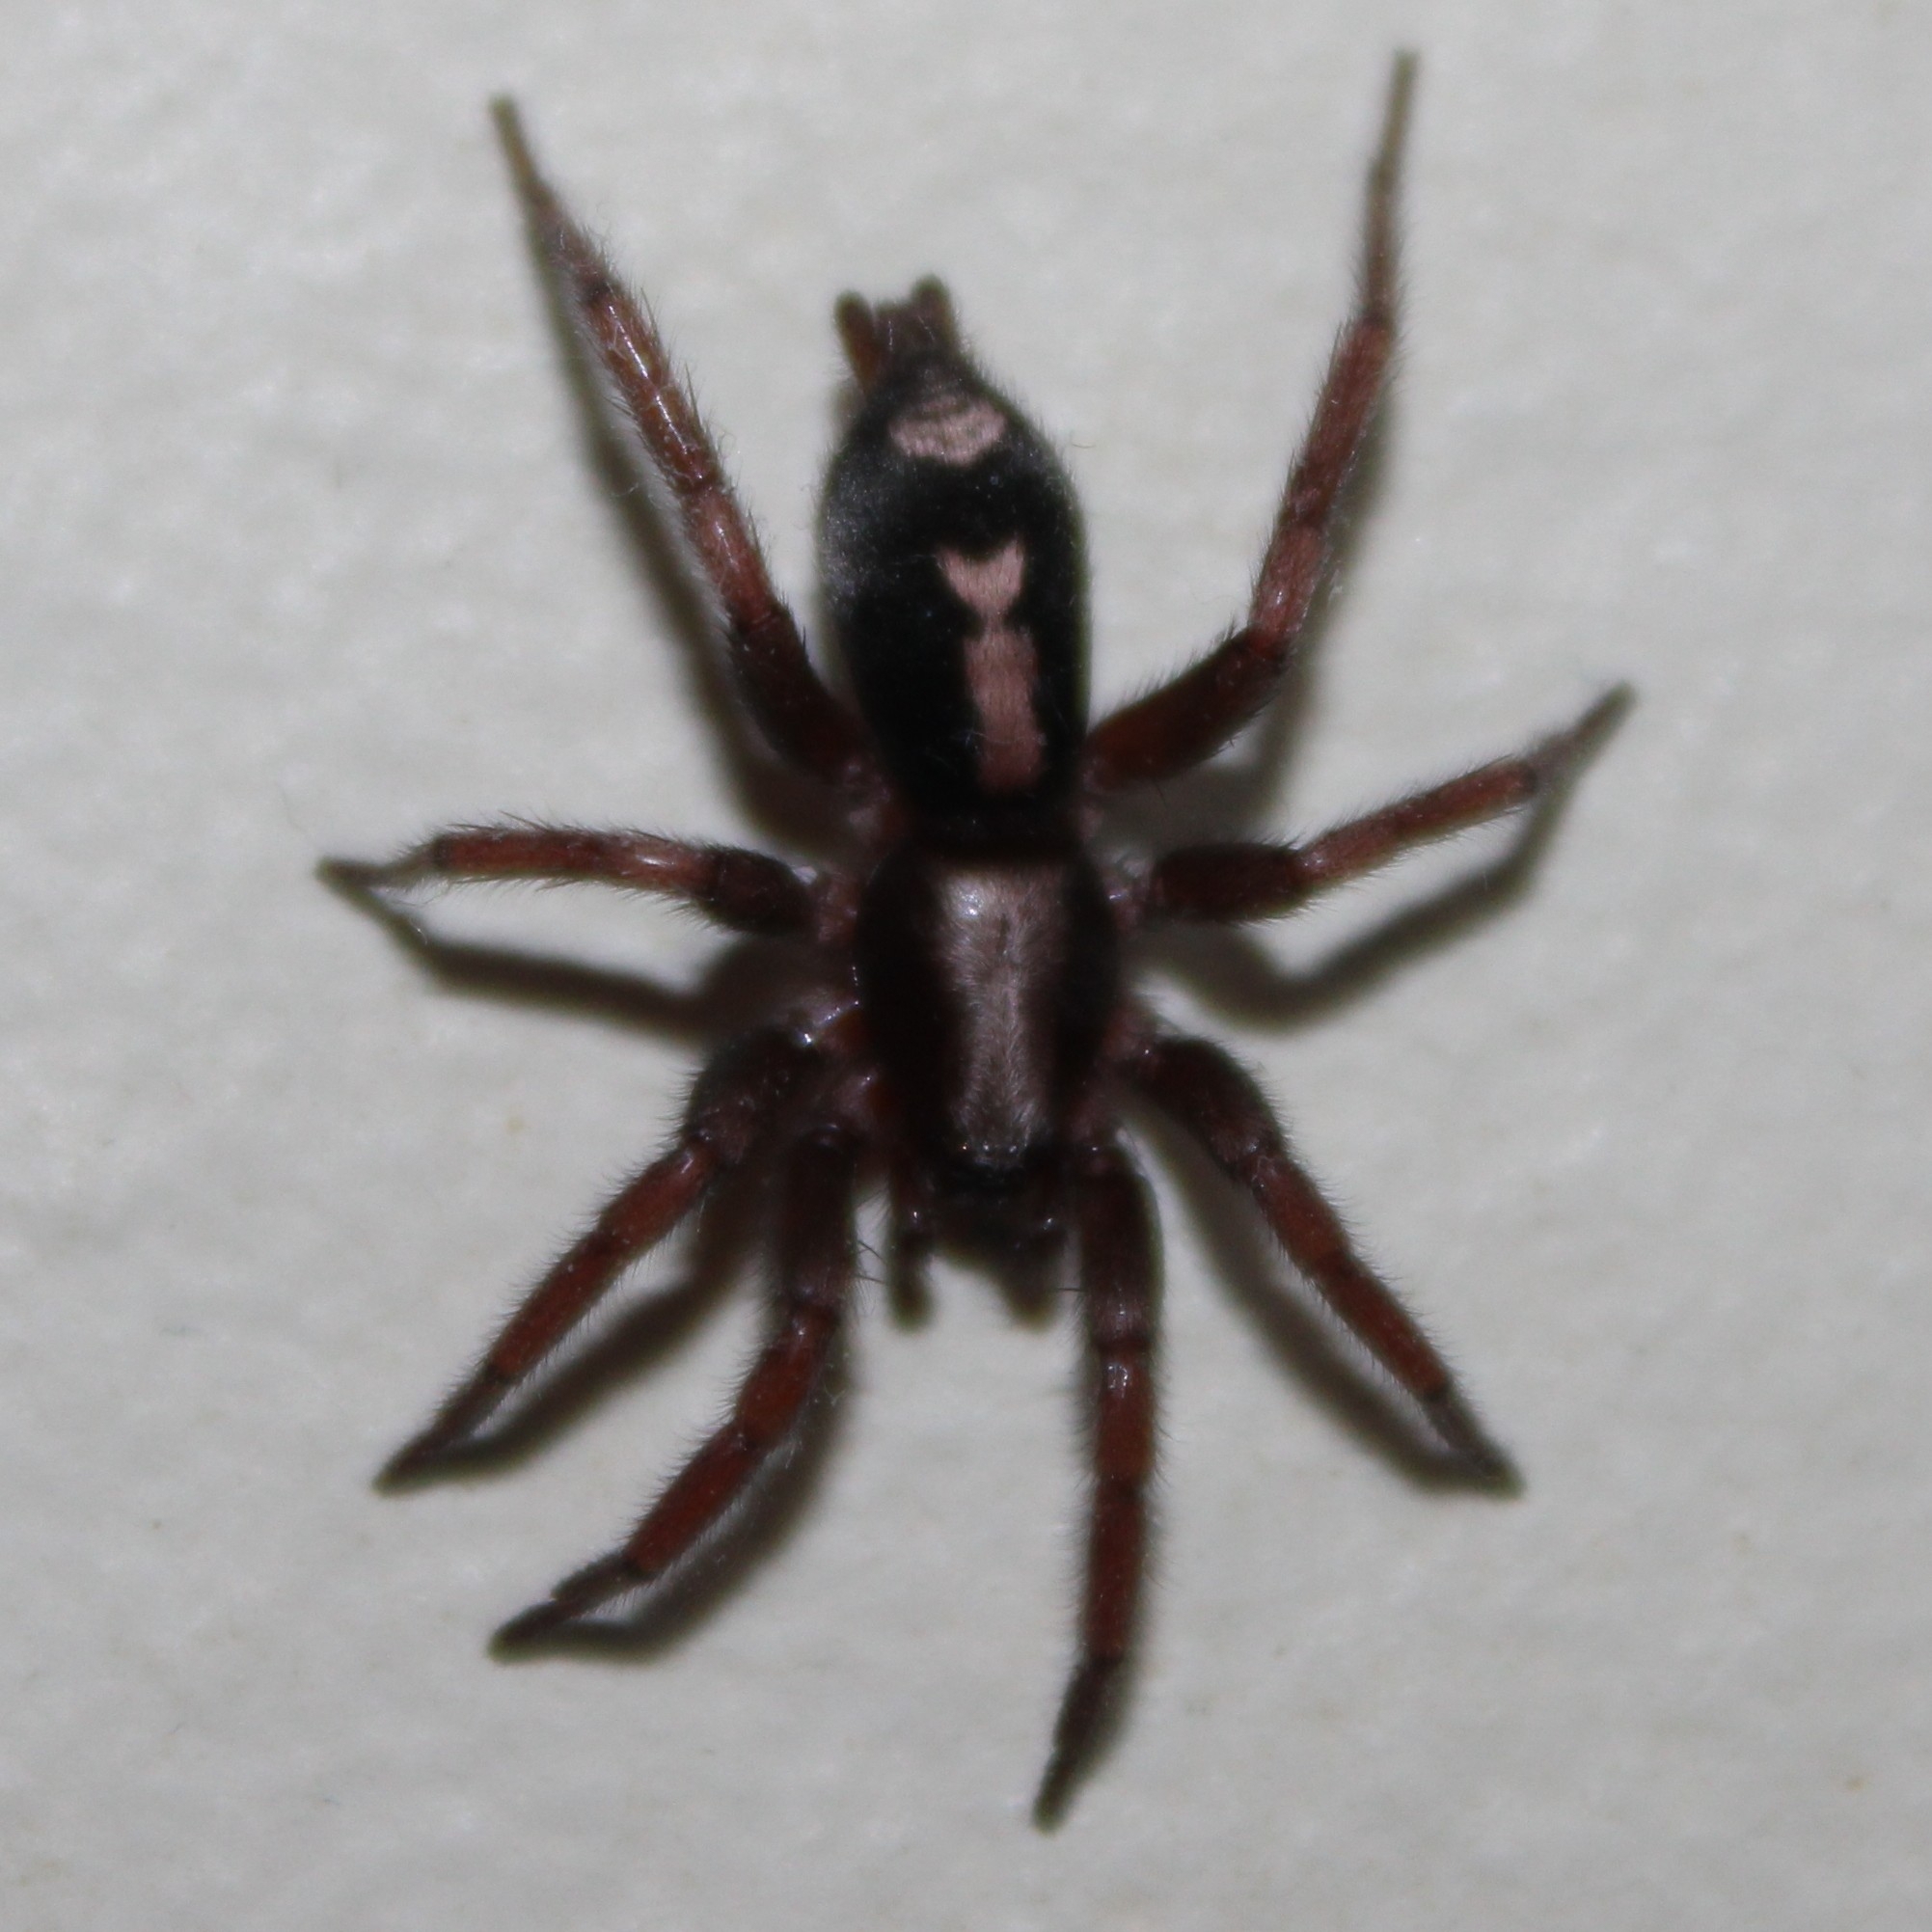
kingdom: Animalia
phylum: Arthropoda
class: Arachnida
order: Araneae
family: Gnaphosidae
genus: Herpyllus
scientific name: Herpyllus ecclesiasticus
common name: Eastern parson spider
